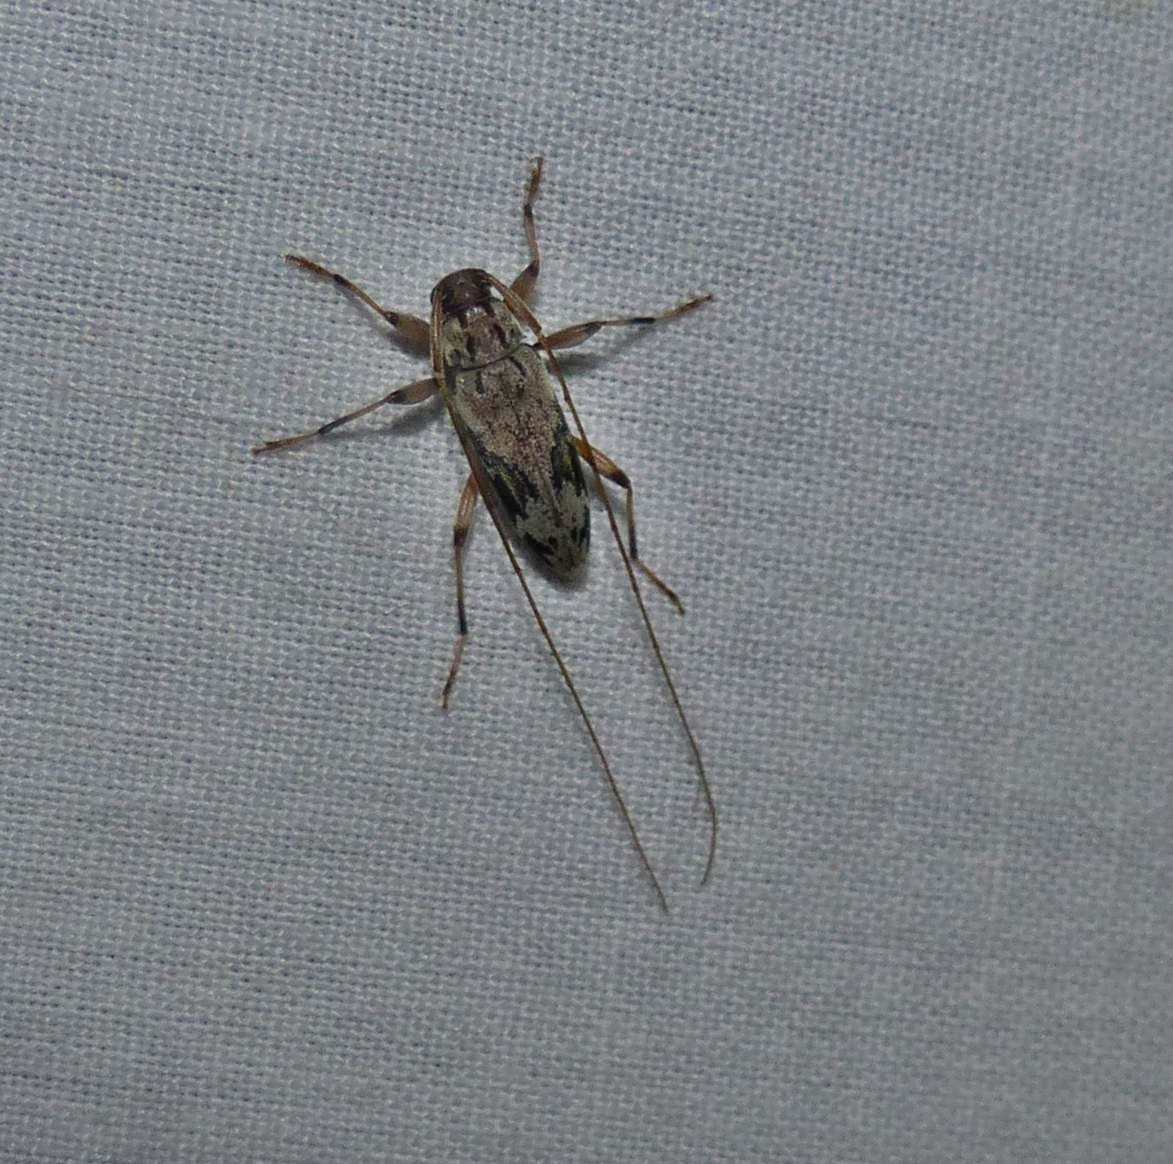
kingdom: Animalia
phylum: Arthropoda
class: Insecta
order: Coleoptera
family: Cerambycidae
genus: Lepturges
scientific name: Lepturges angulatus
